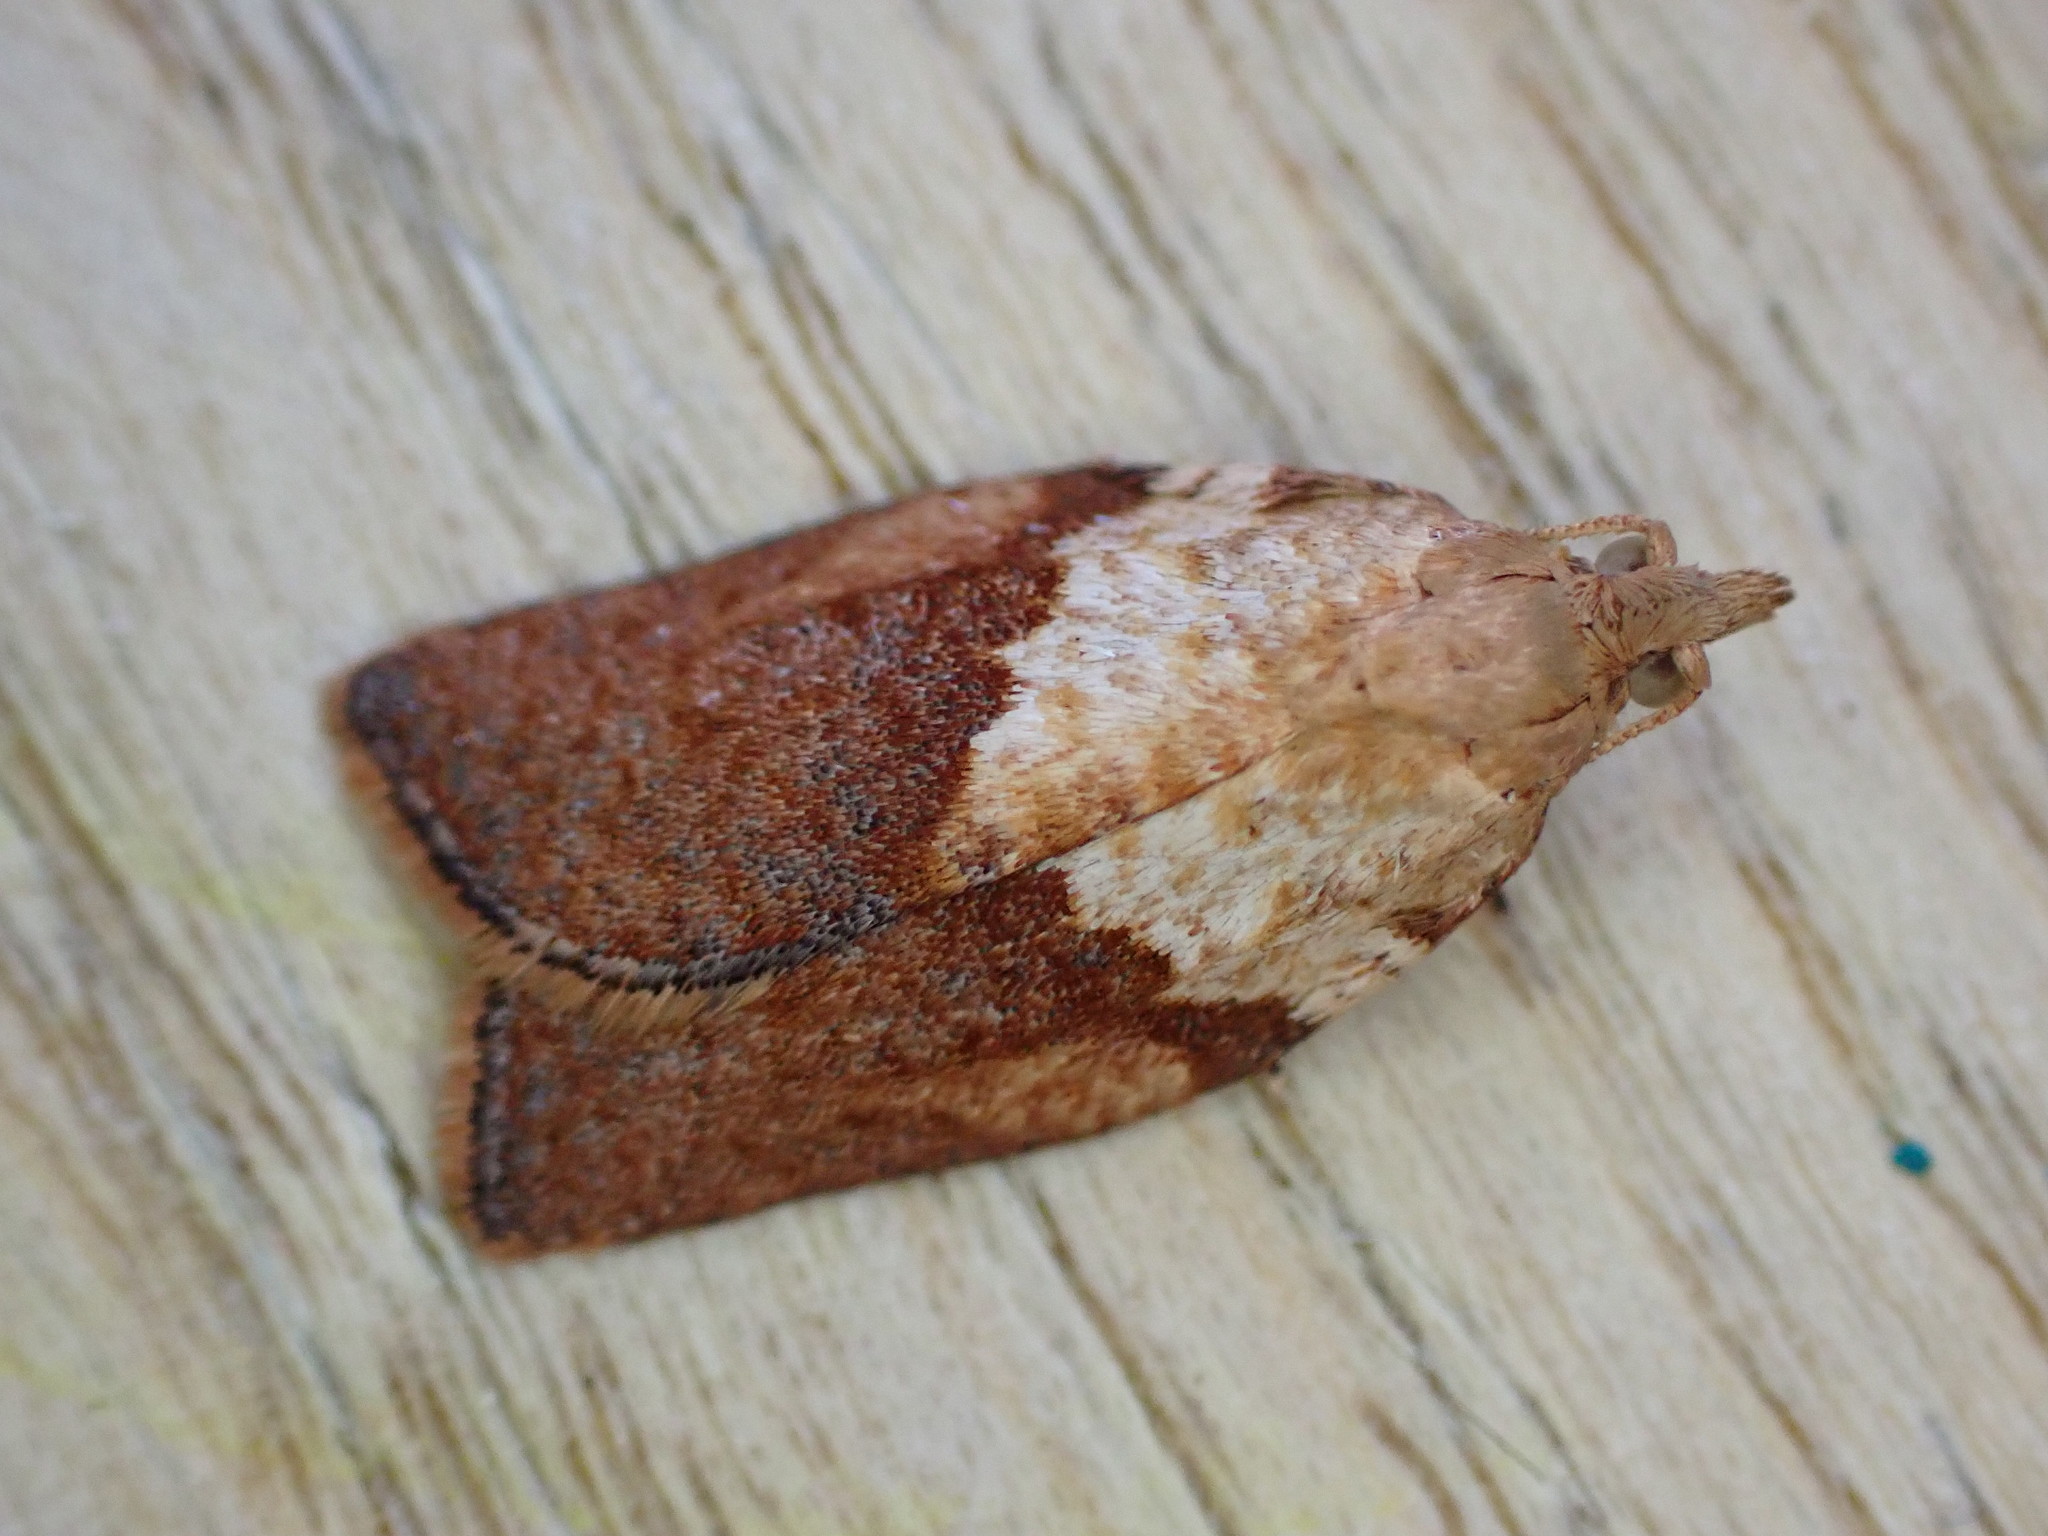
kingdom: Animalia
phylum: Arthropoda
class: Insecta
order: Lepidoptera
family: Tortricidae
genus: Epiphyas
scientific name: Epiphyas postvittana
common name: Light brown apple moth
